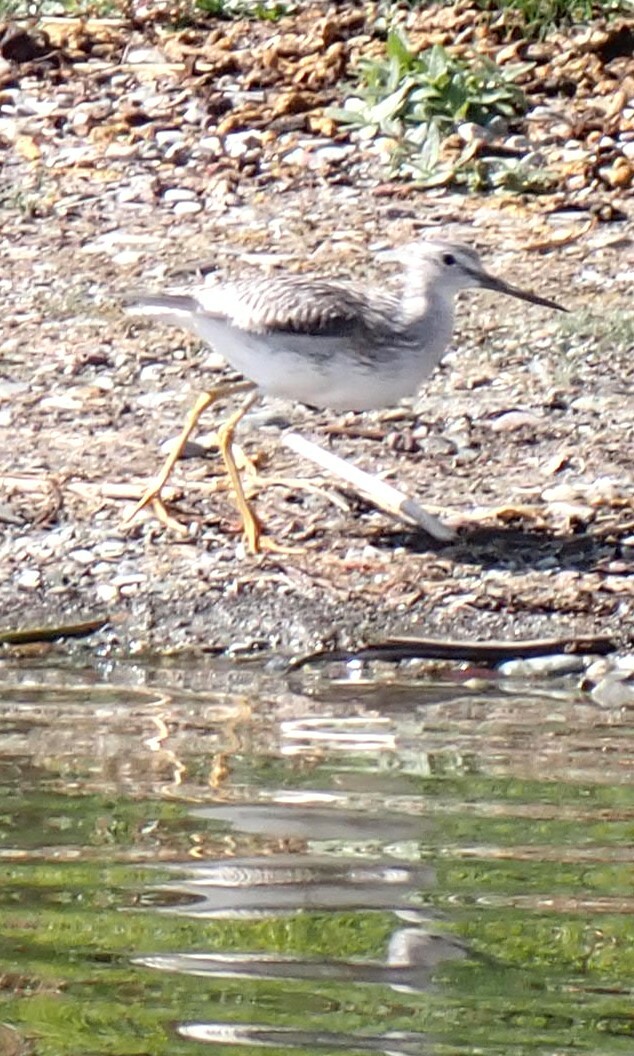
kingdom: Animalia
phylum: Chordata
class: Aves
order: Charadriiformes
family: Scolopacidae
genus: Tringa
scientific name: Tringa melanoleuca
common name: Greater yellowlegs
